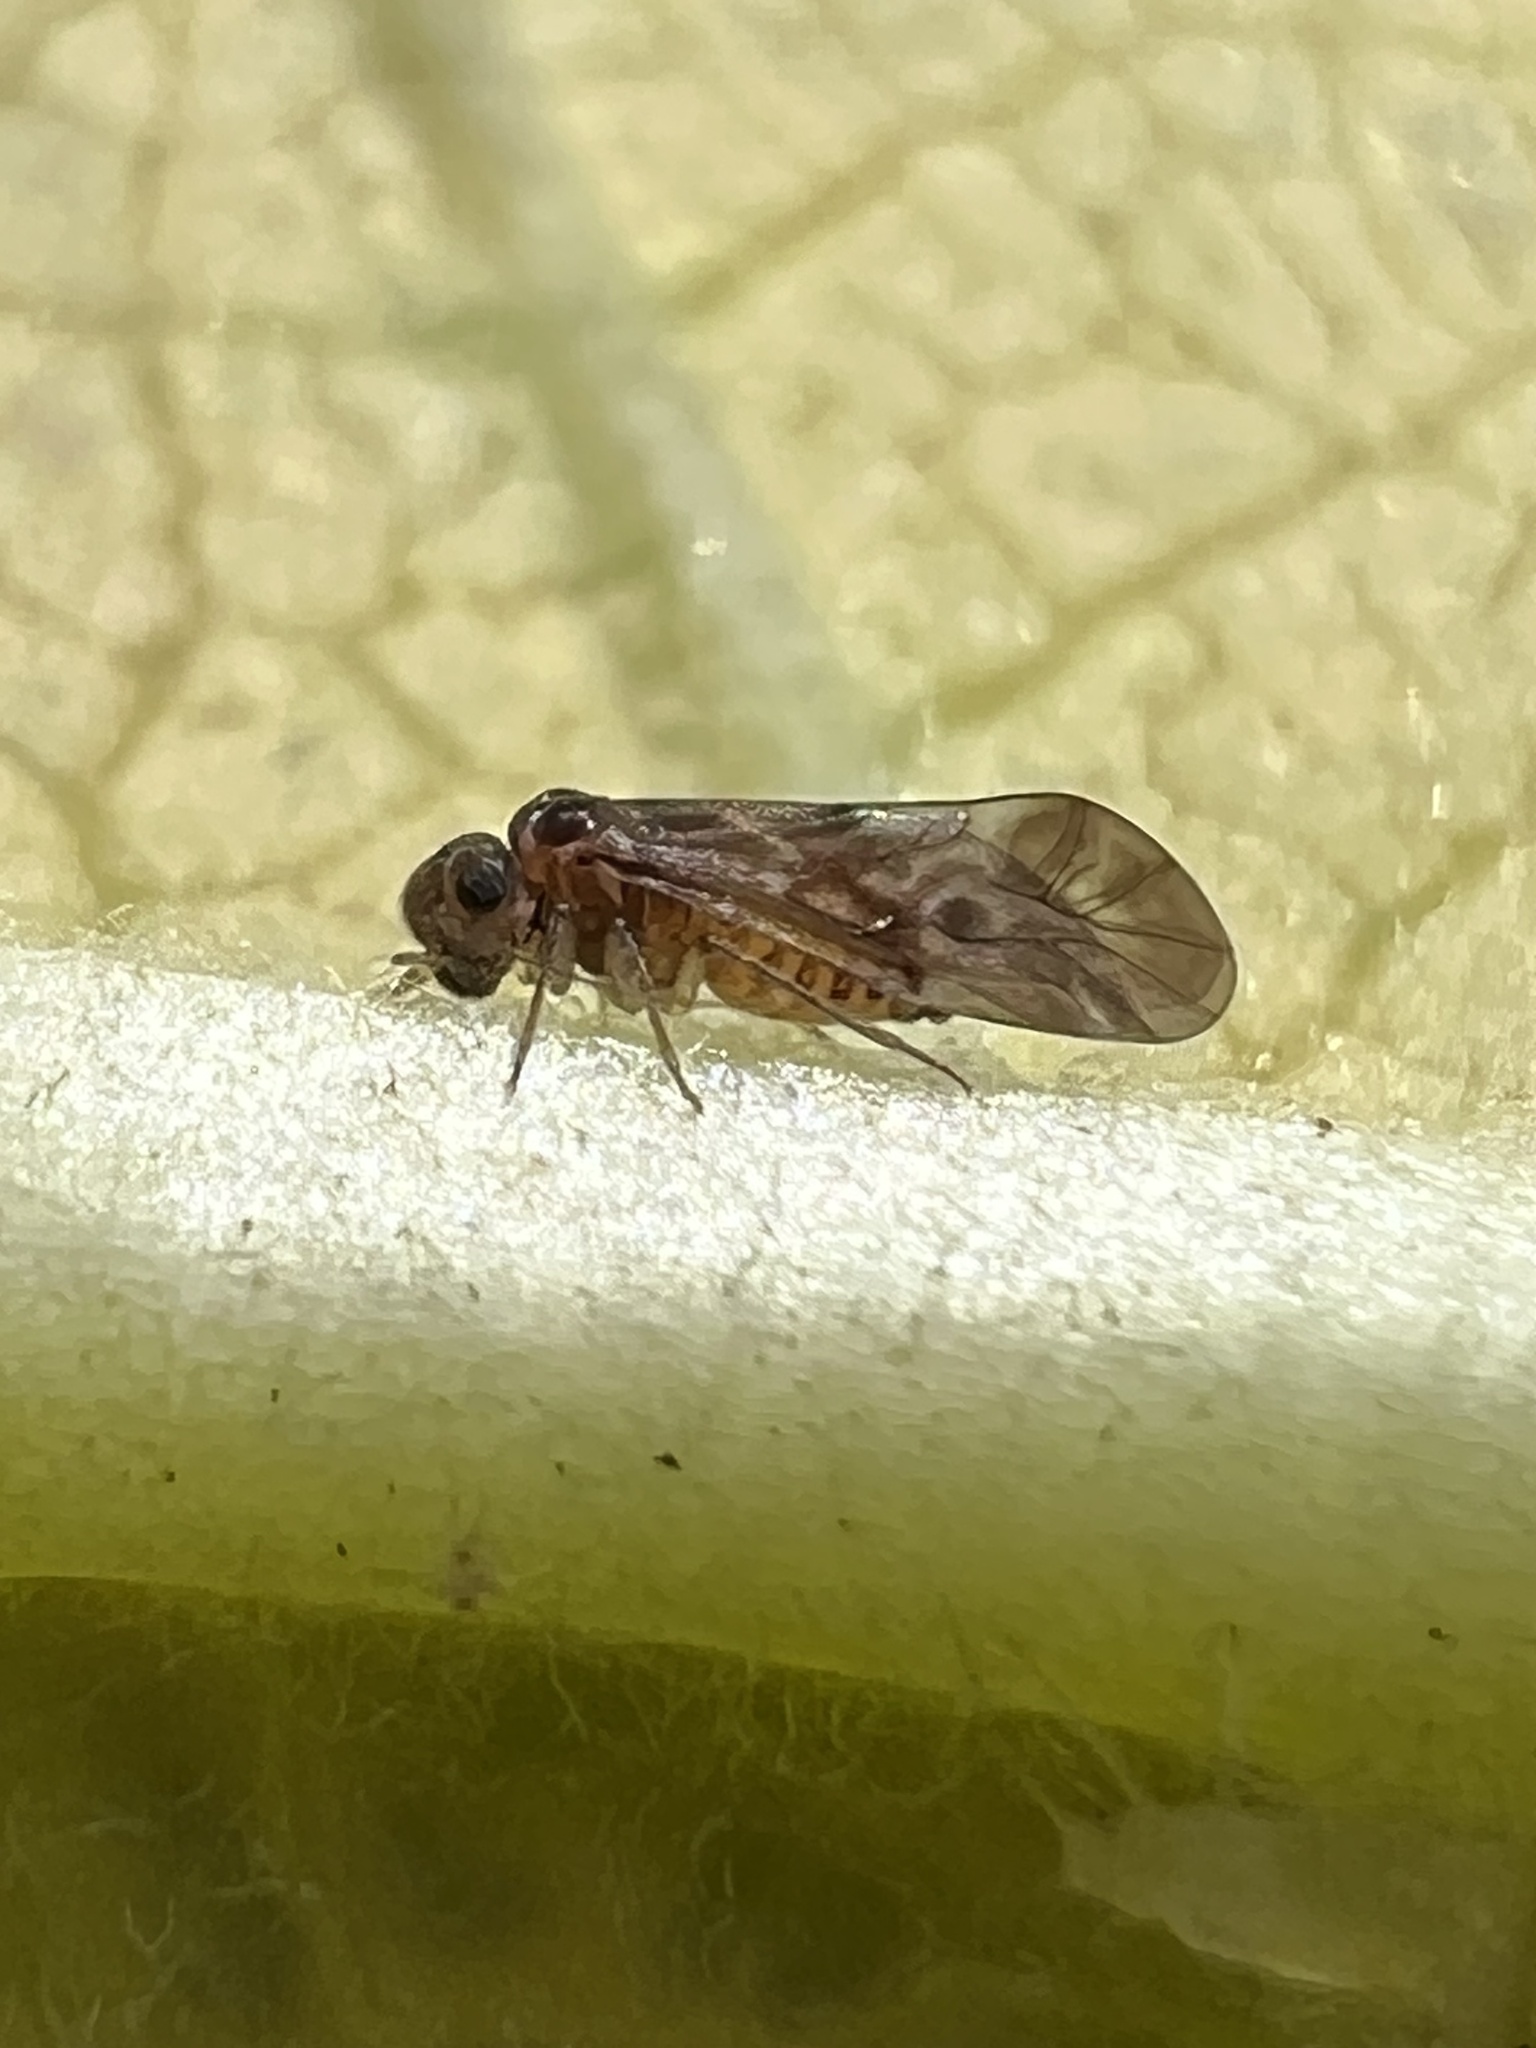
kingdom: Animalia
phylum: Arthropoda
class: Insecta
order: Psocodea
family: Peripsocidae
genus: Peripsocus
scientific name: Peripsocus subfasciatus
